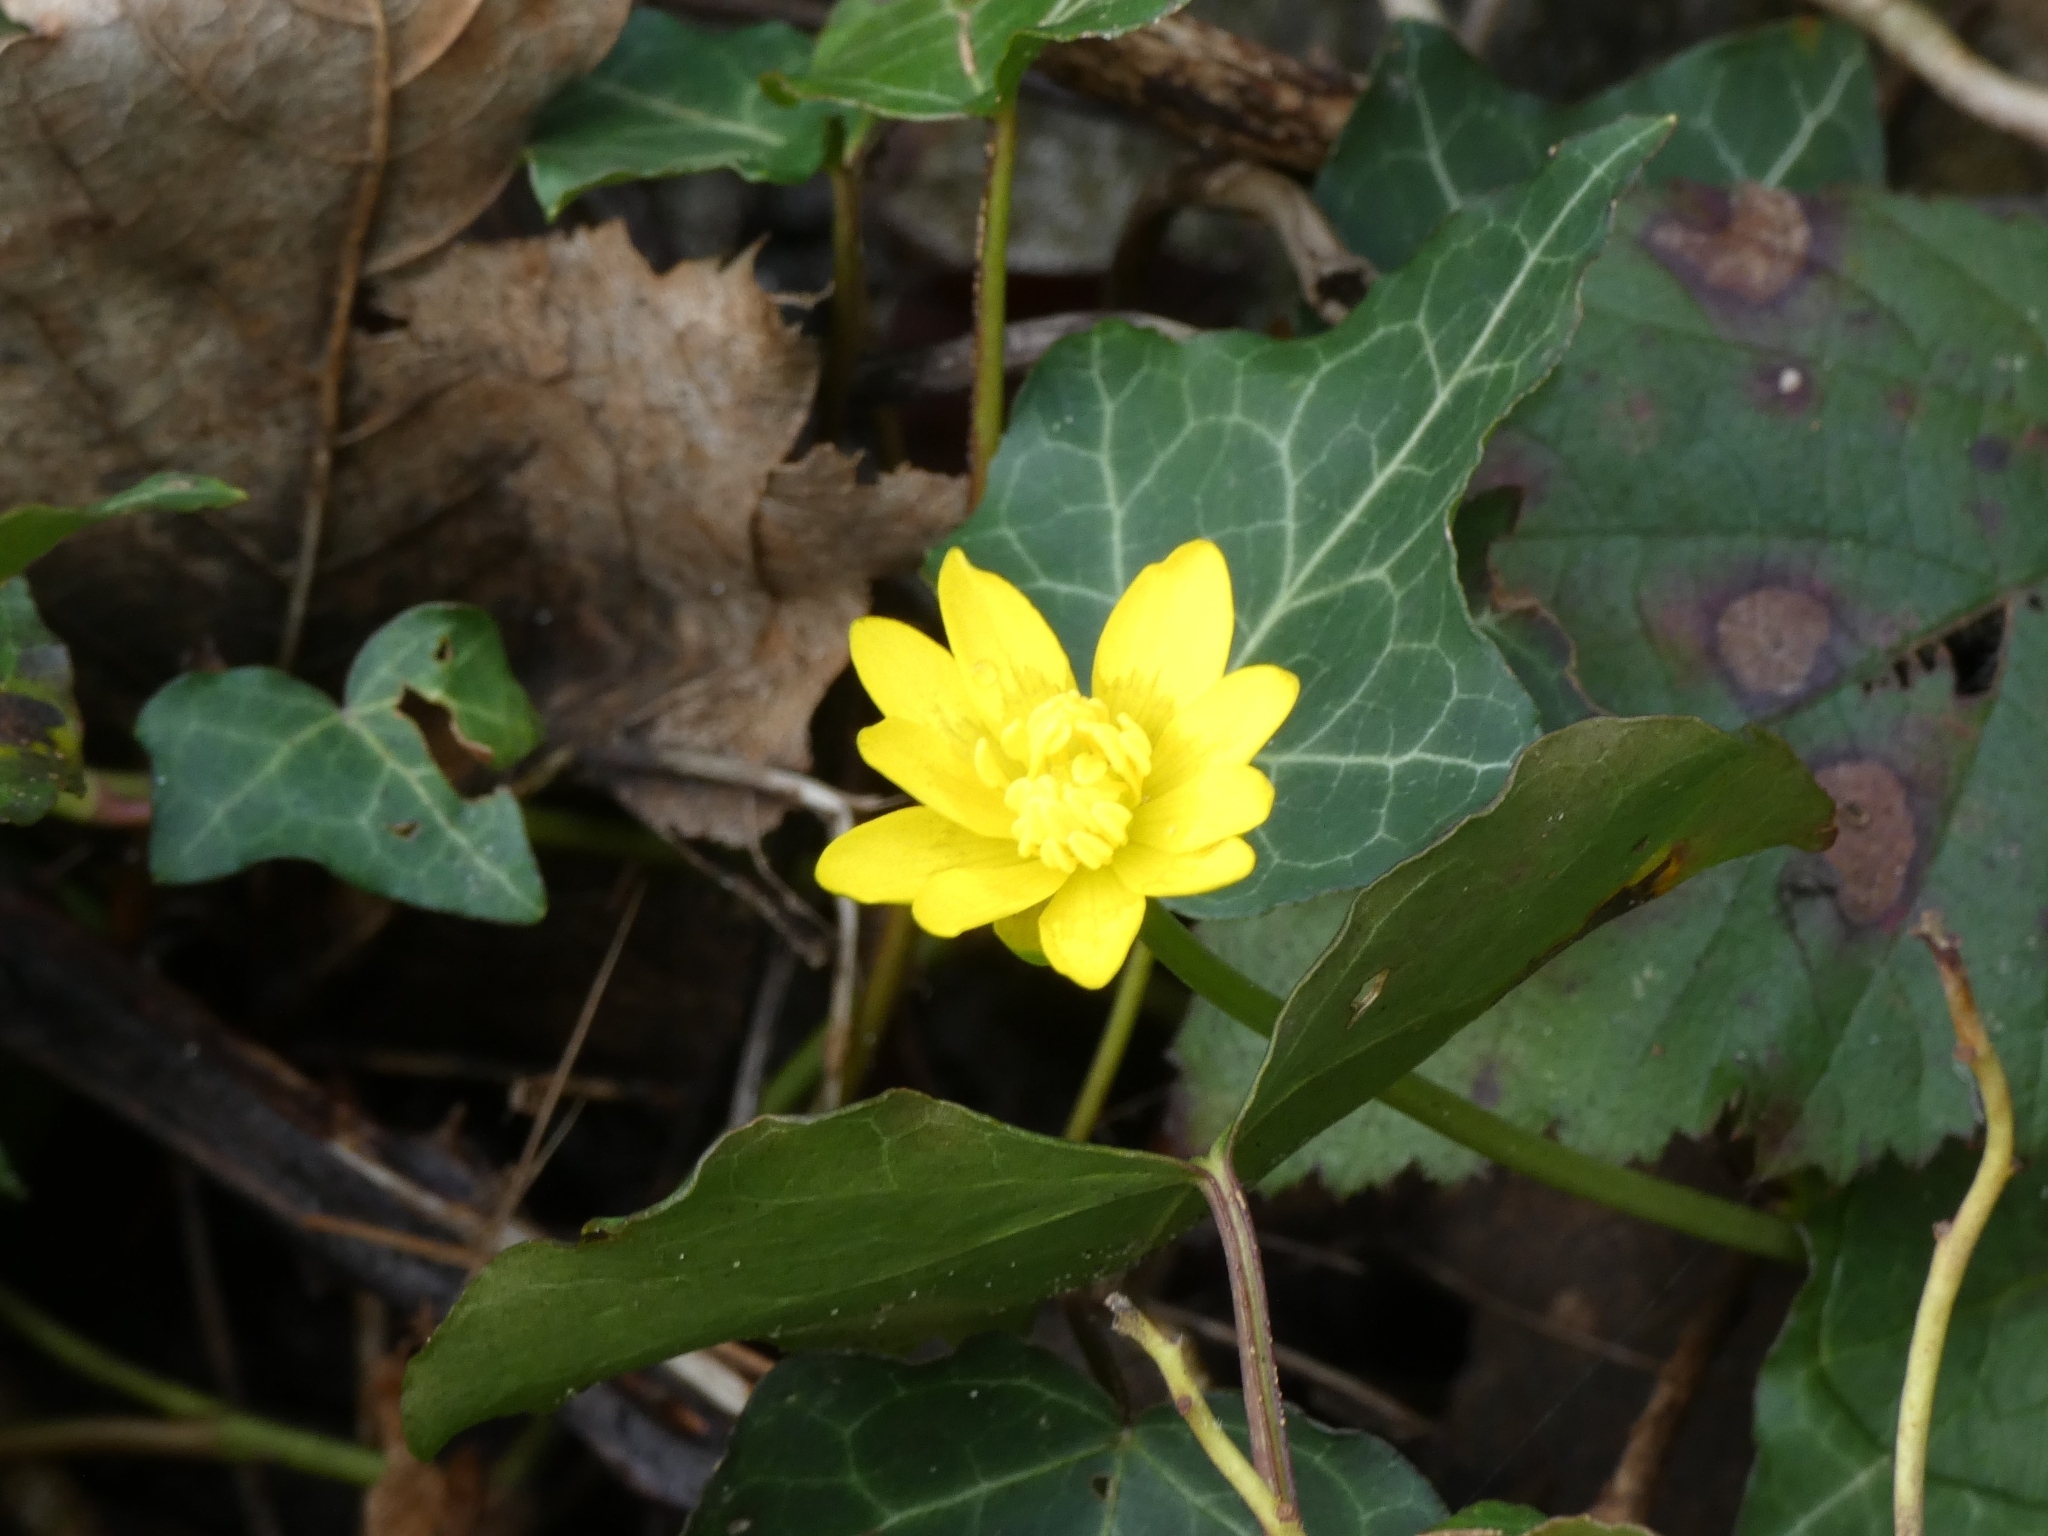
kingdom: Plantae
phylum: Tracheophyta
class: Magnoliopsida
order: Ranunculales
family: Ranunculaceae
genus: Ficaria
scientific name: Ficaria verna
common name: Lesser celandine
